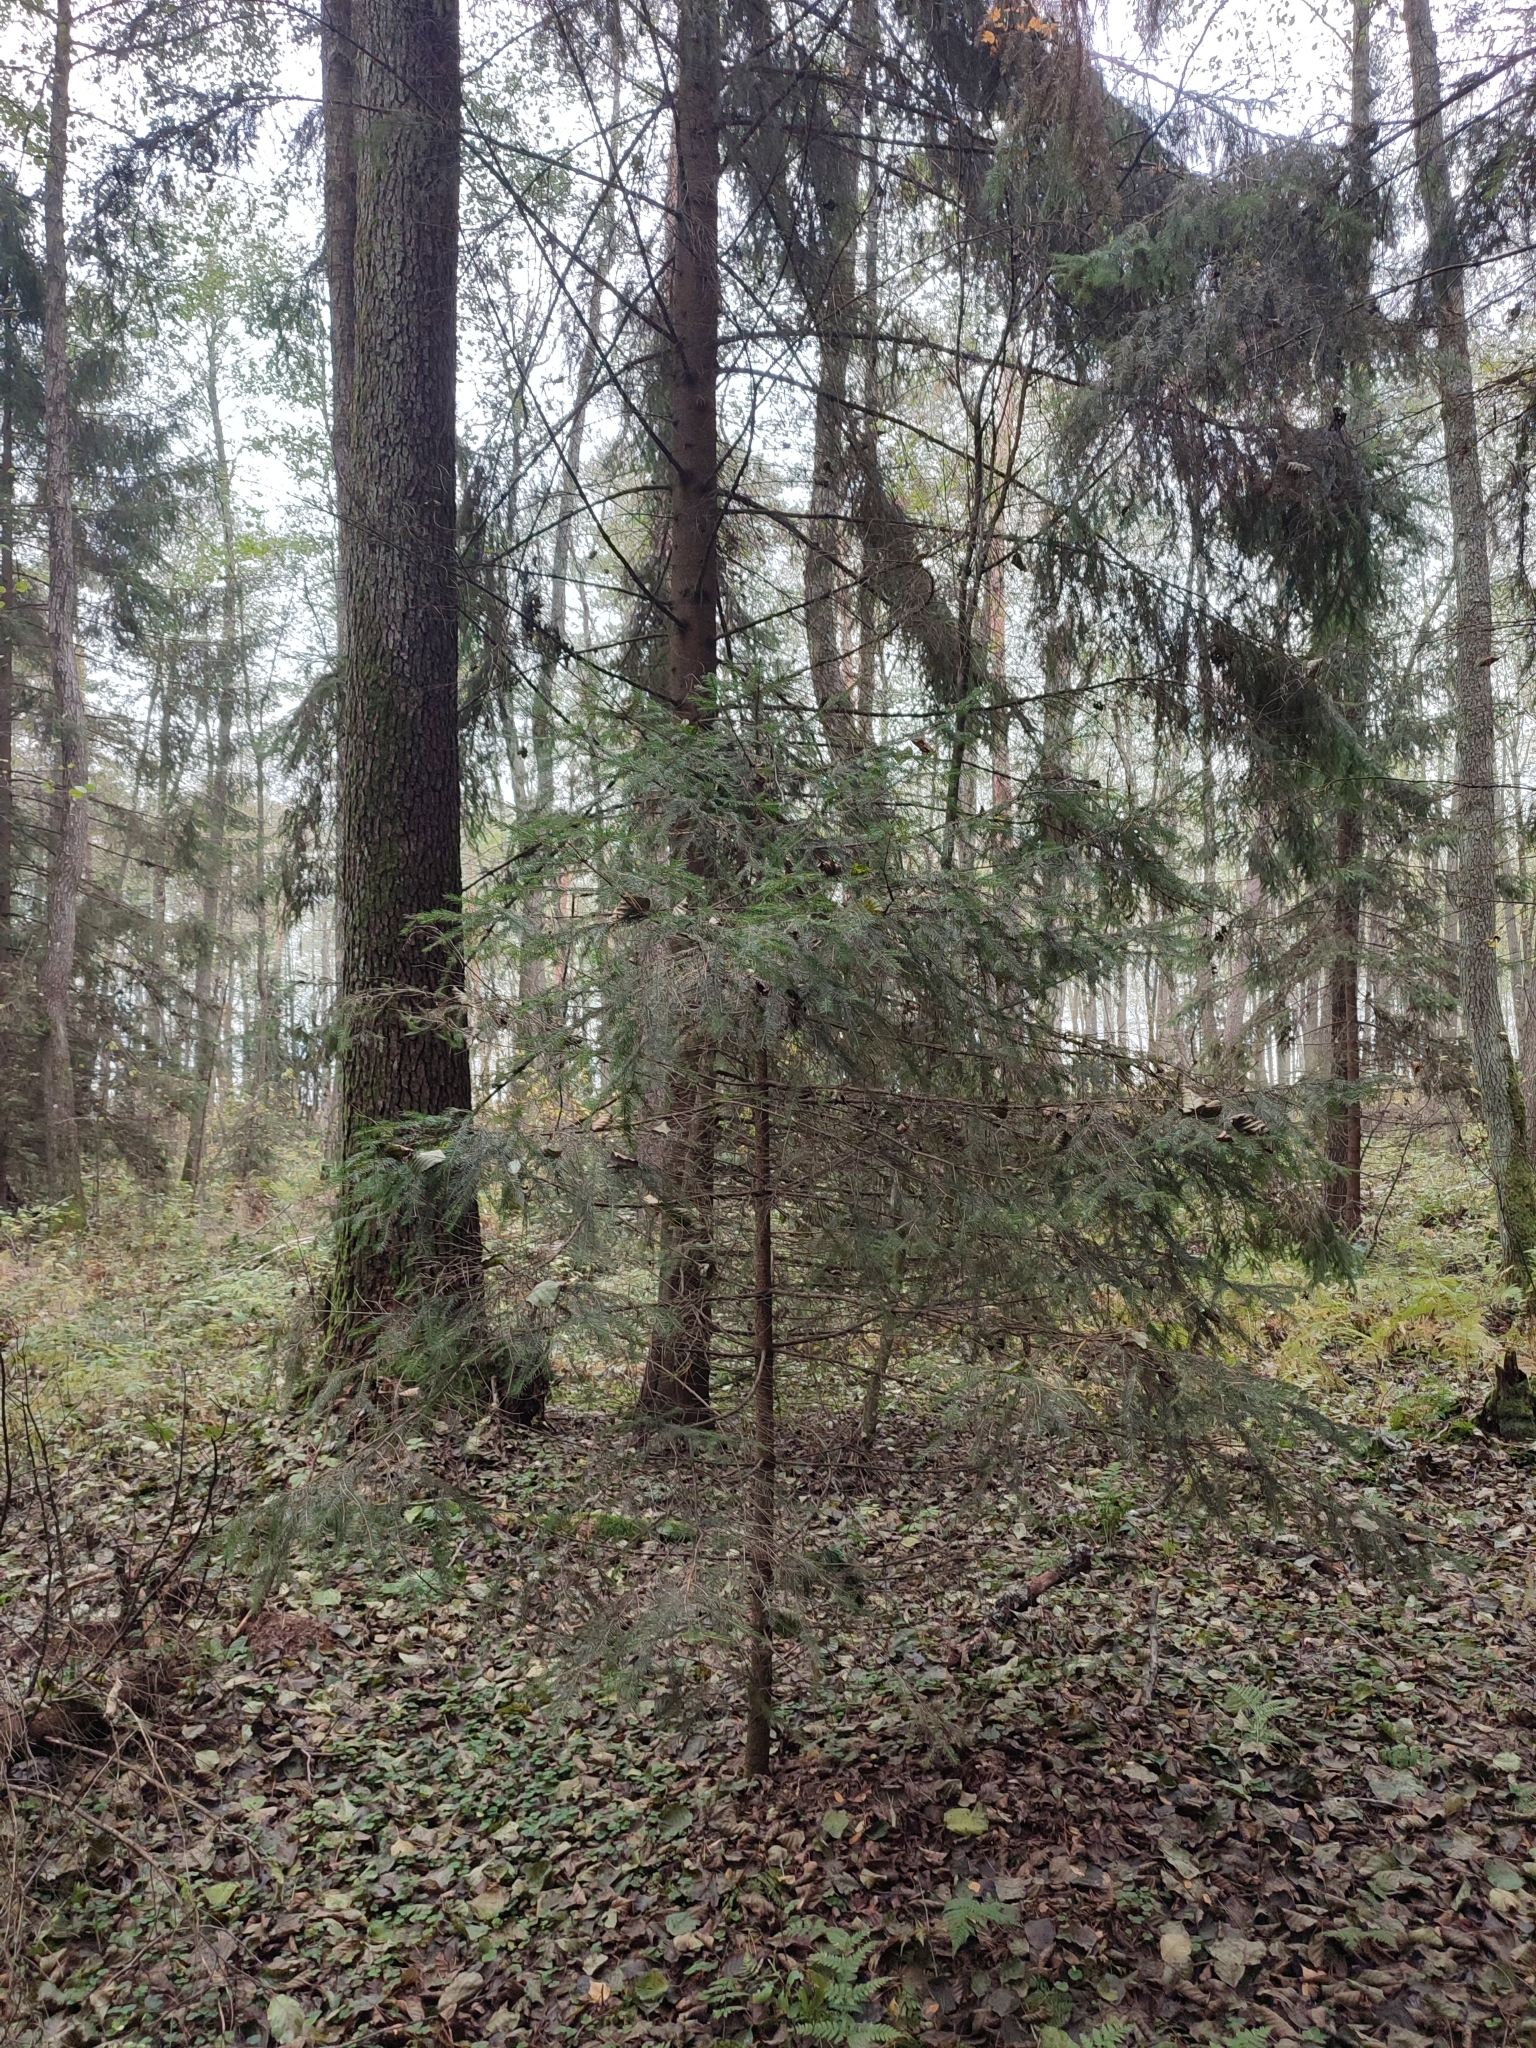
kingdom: Plantae
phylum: Tracheophyta
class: Pinopsida
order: Pinales
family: Pinaceae
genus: Picea
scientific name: Picea abies
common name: Norway spruce
